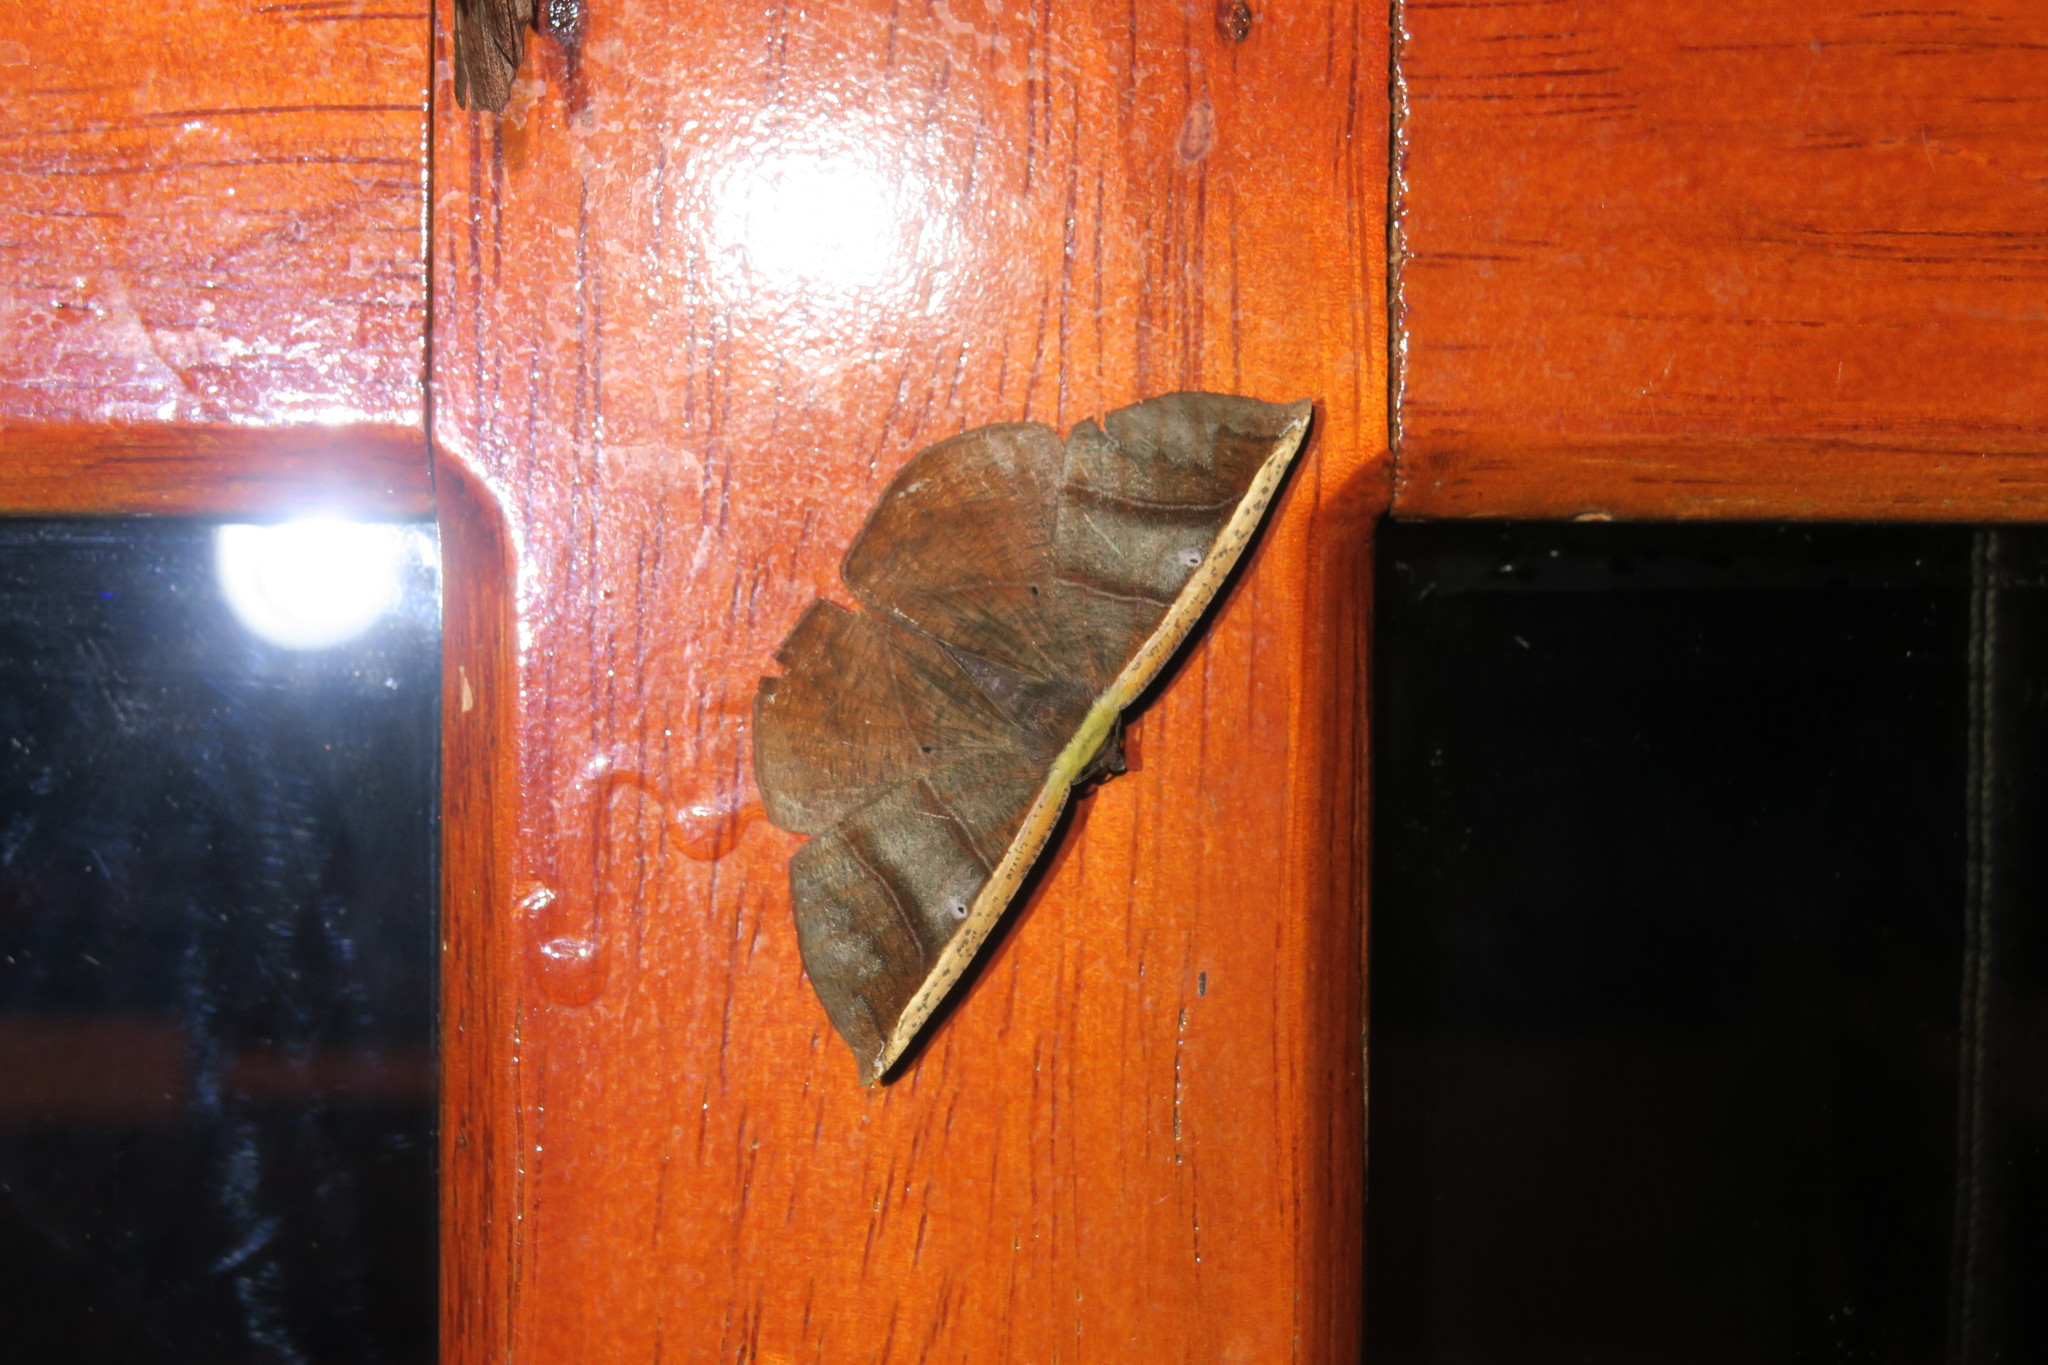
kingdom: Animalia
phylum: Arthropoda
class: Insecta
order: Lepidoptera
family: Geometridae
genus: Cimicodes
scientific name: Cimicodes albicosta
